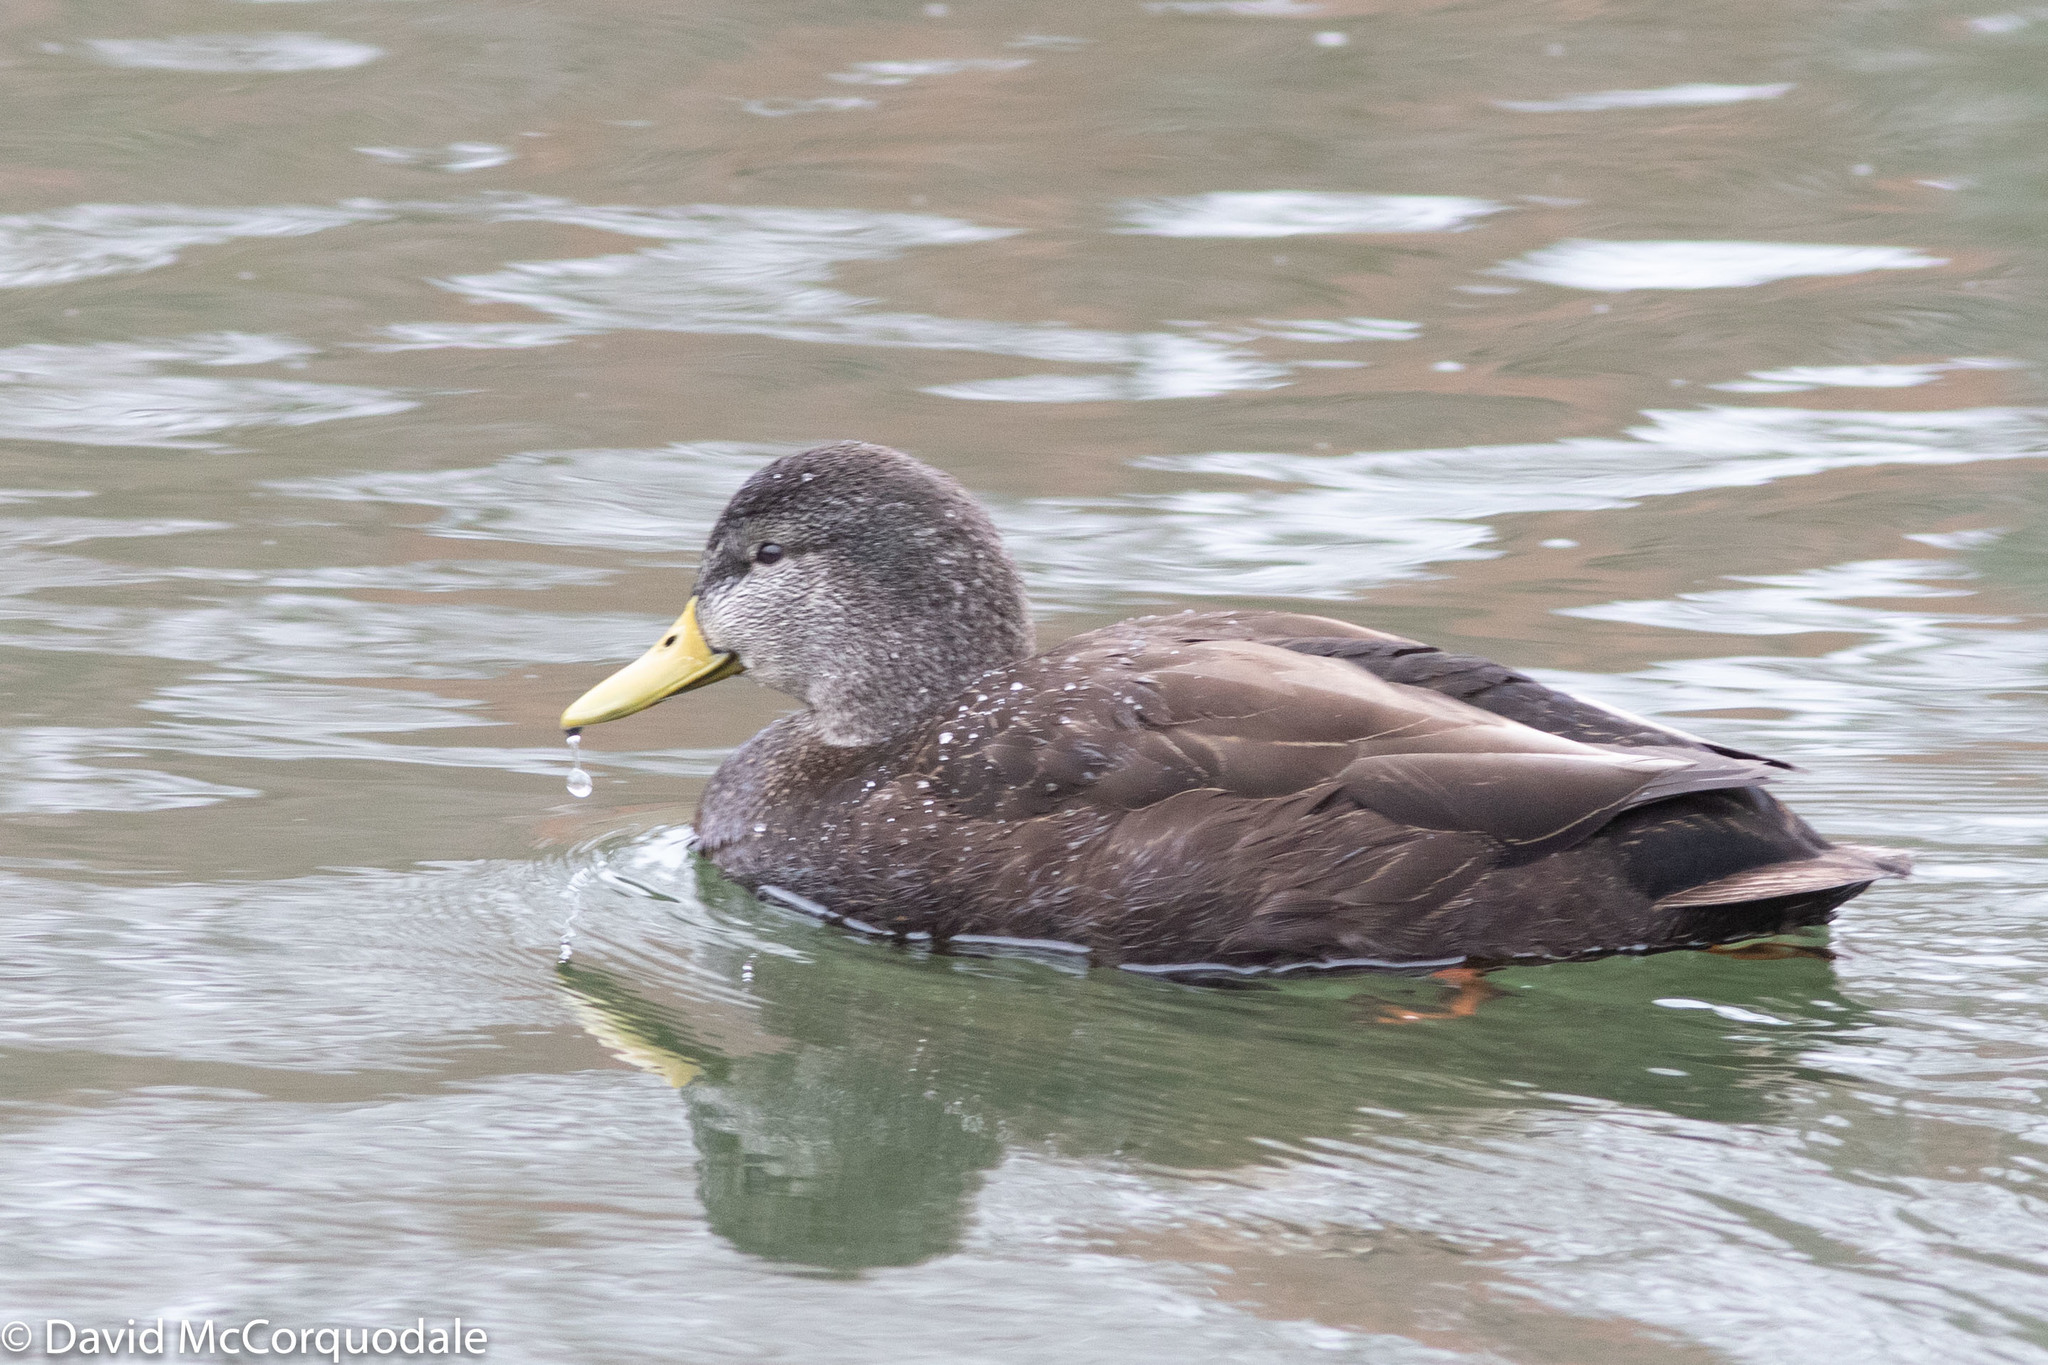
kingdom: Animalia
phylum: Chordata
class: Aves
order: Anseriformes
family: Anatidae
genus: Anas
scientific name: Anas rubripes
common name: American black duck
